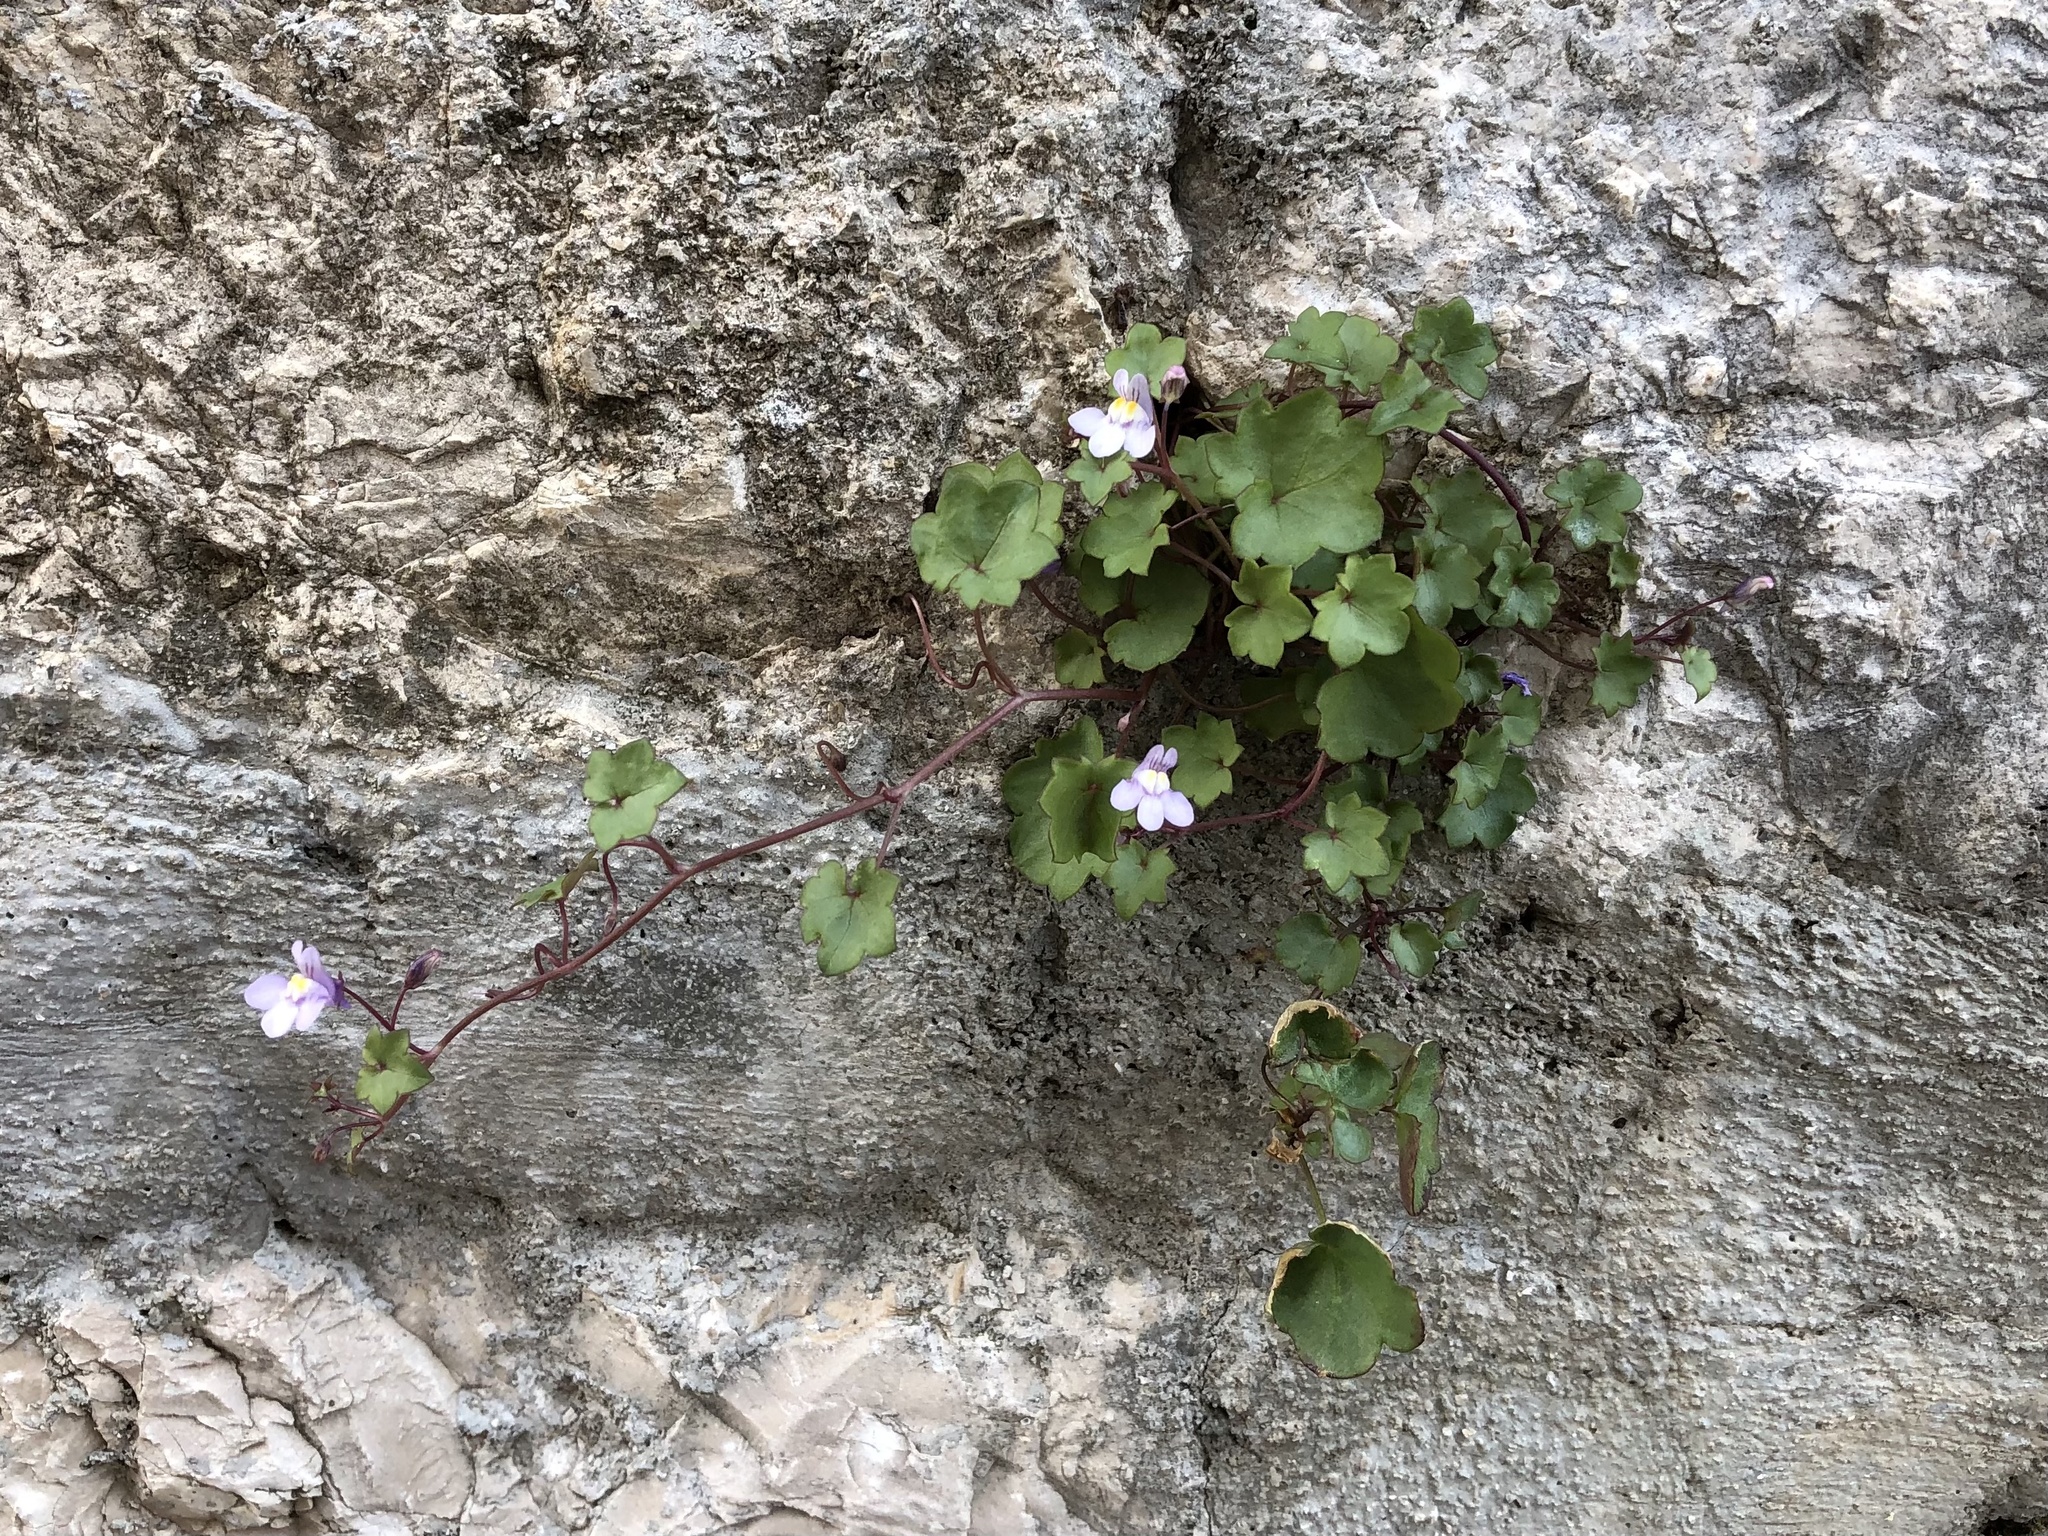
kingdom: Plantae
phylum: Tracheophyta
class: Magnoliopsida
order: Lamiales
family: Plantaginaceae
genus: Cymbalaria
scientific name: Cymbalaria muralis
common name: Ivy-leaved toadflax
